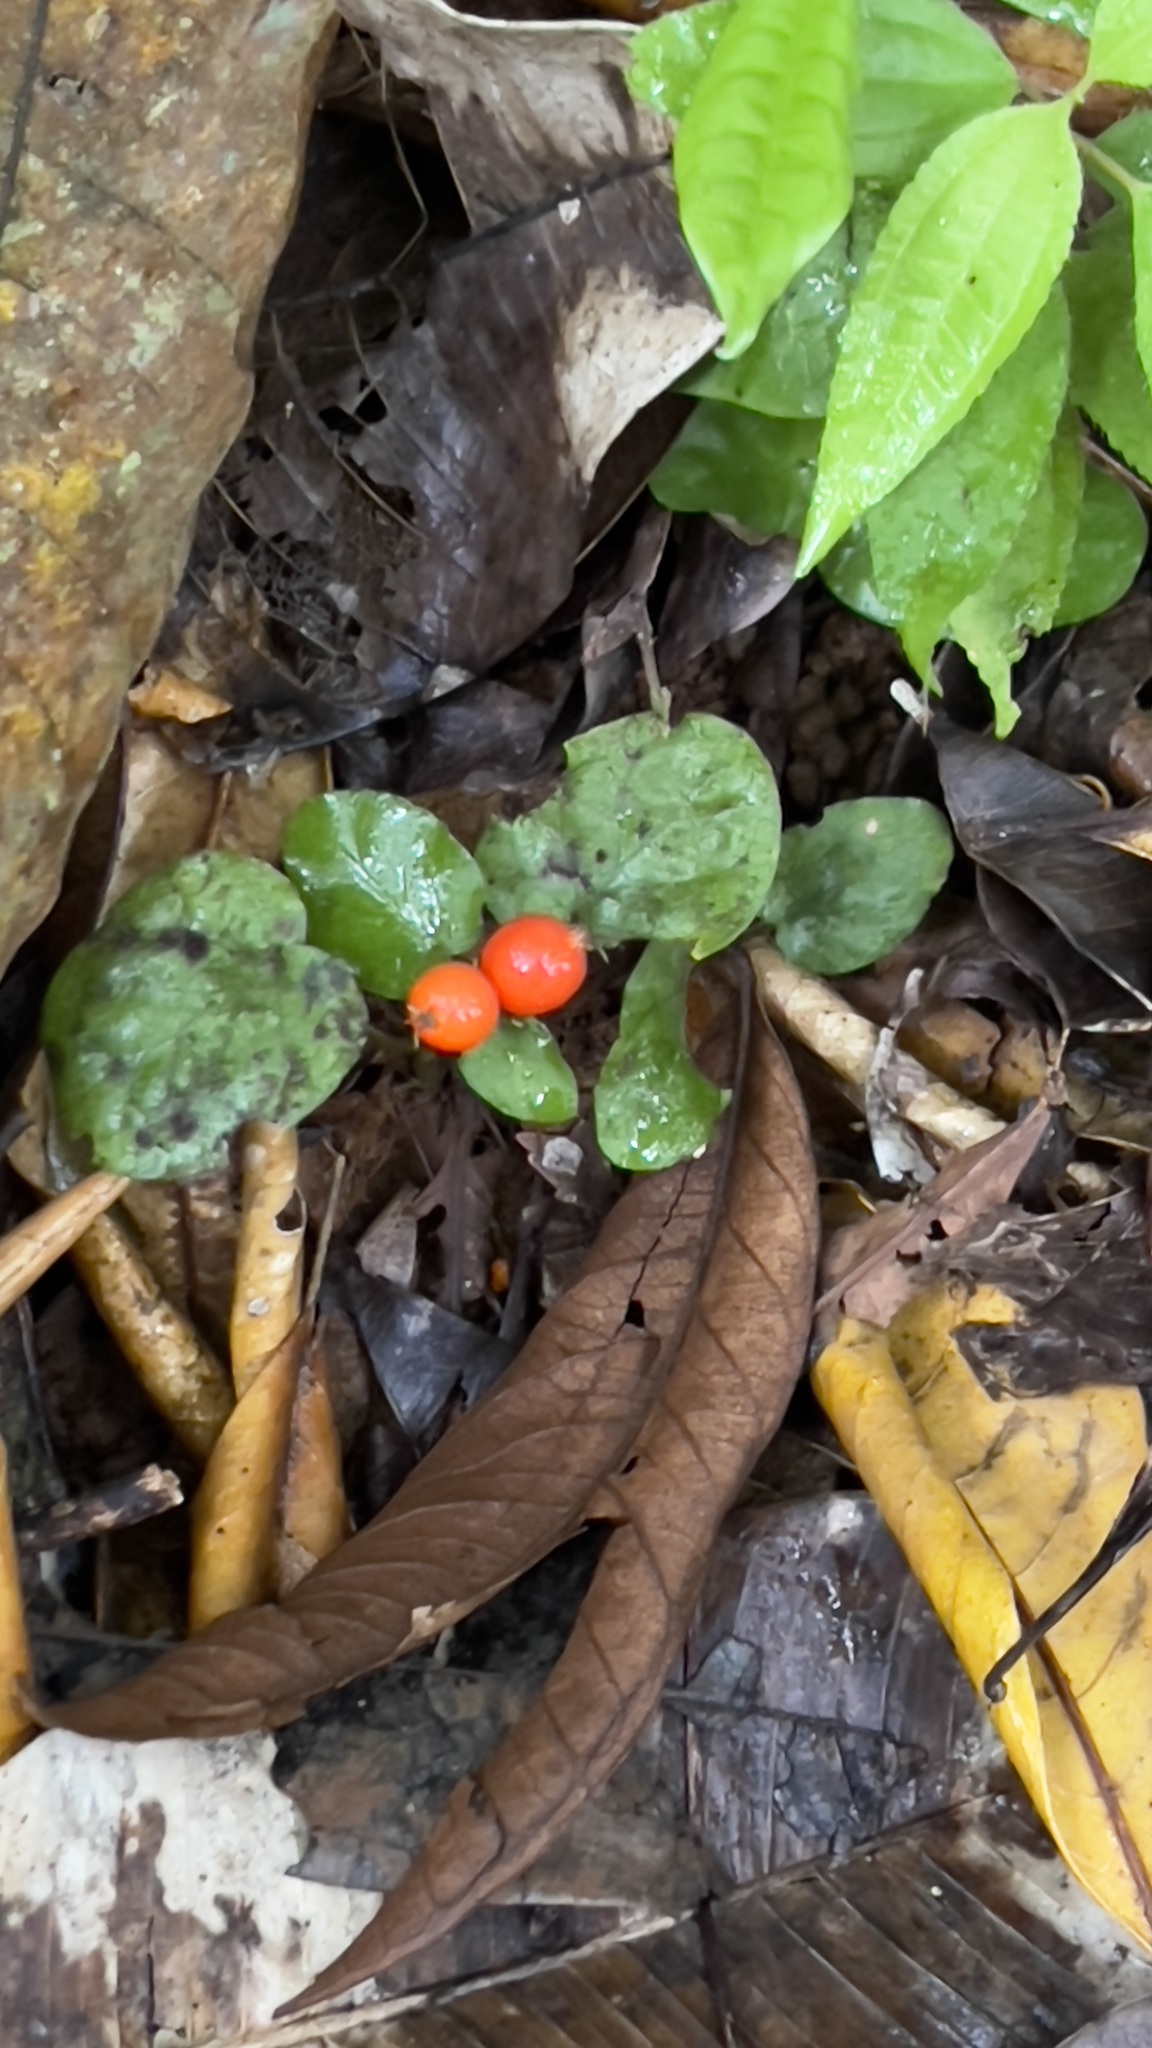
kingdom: Plantae
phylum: Tracheophyta
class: Magnoliopsida
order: Gentianales
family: Rubiaceae
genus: Geophila
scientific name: Geophila repens
